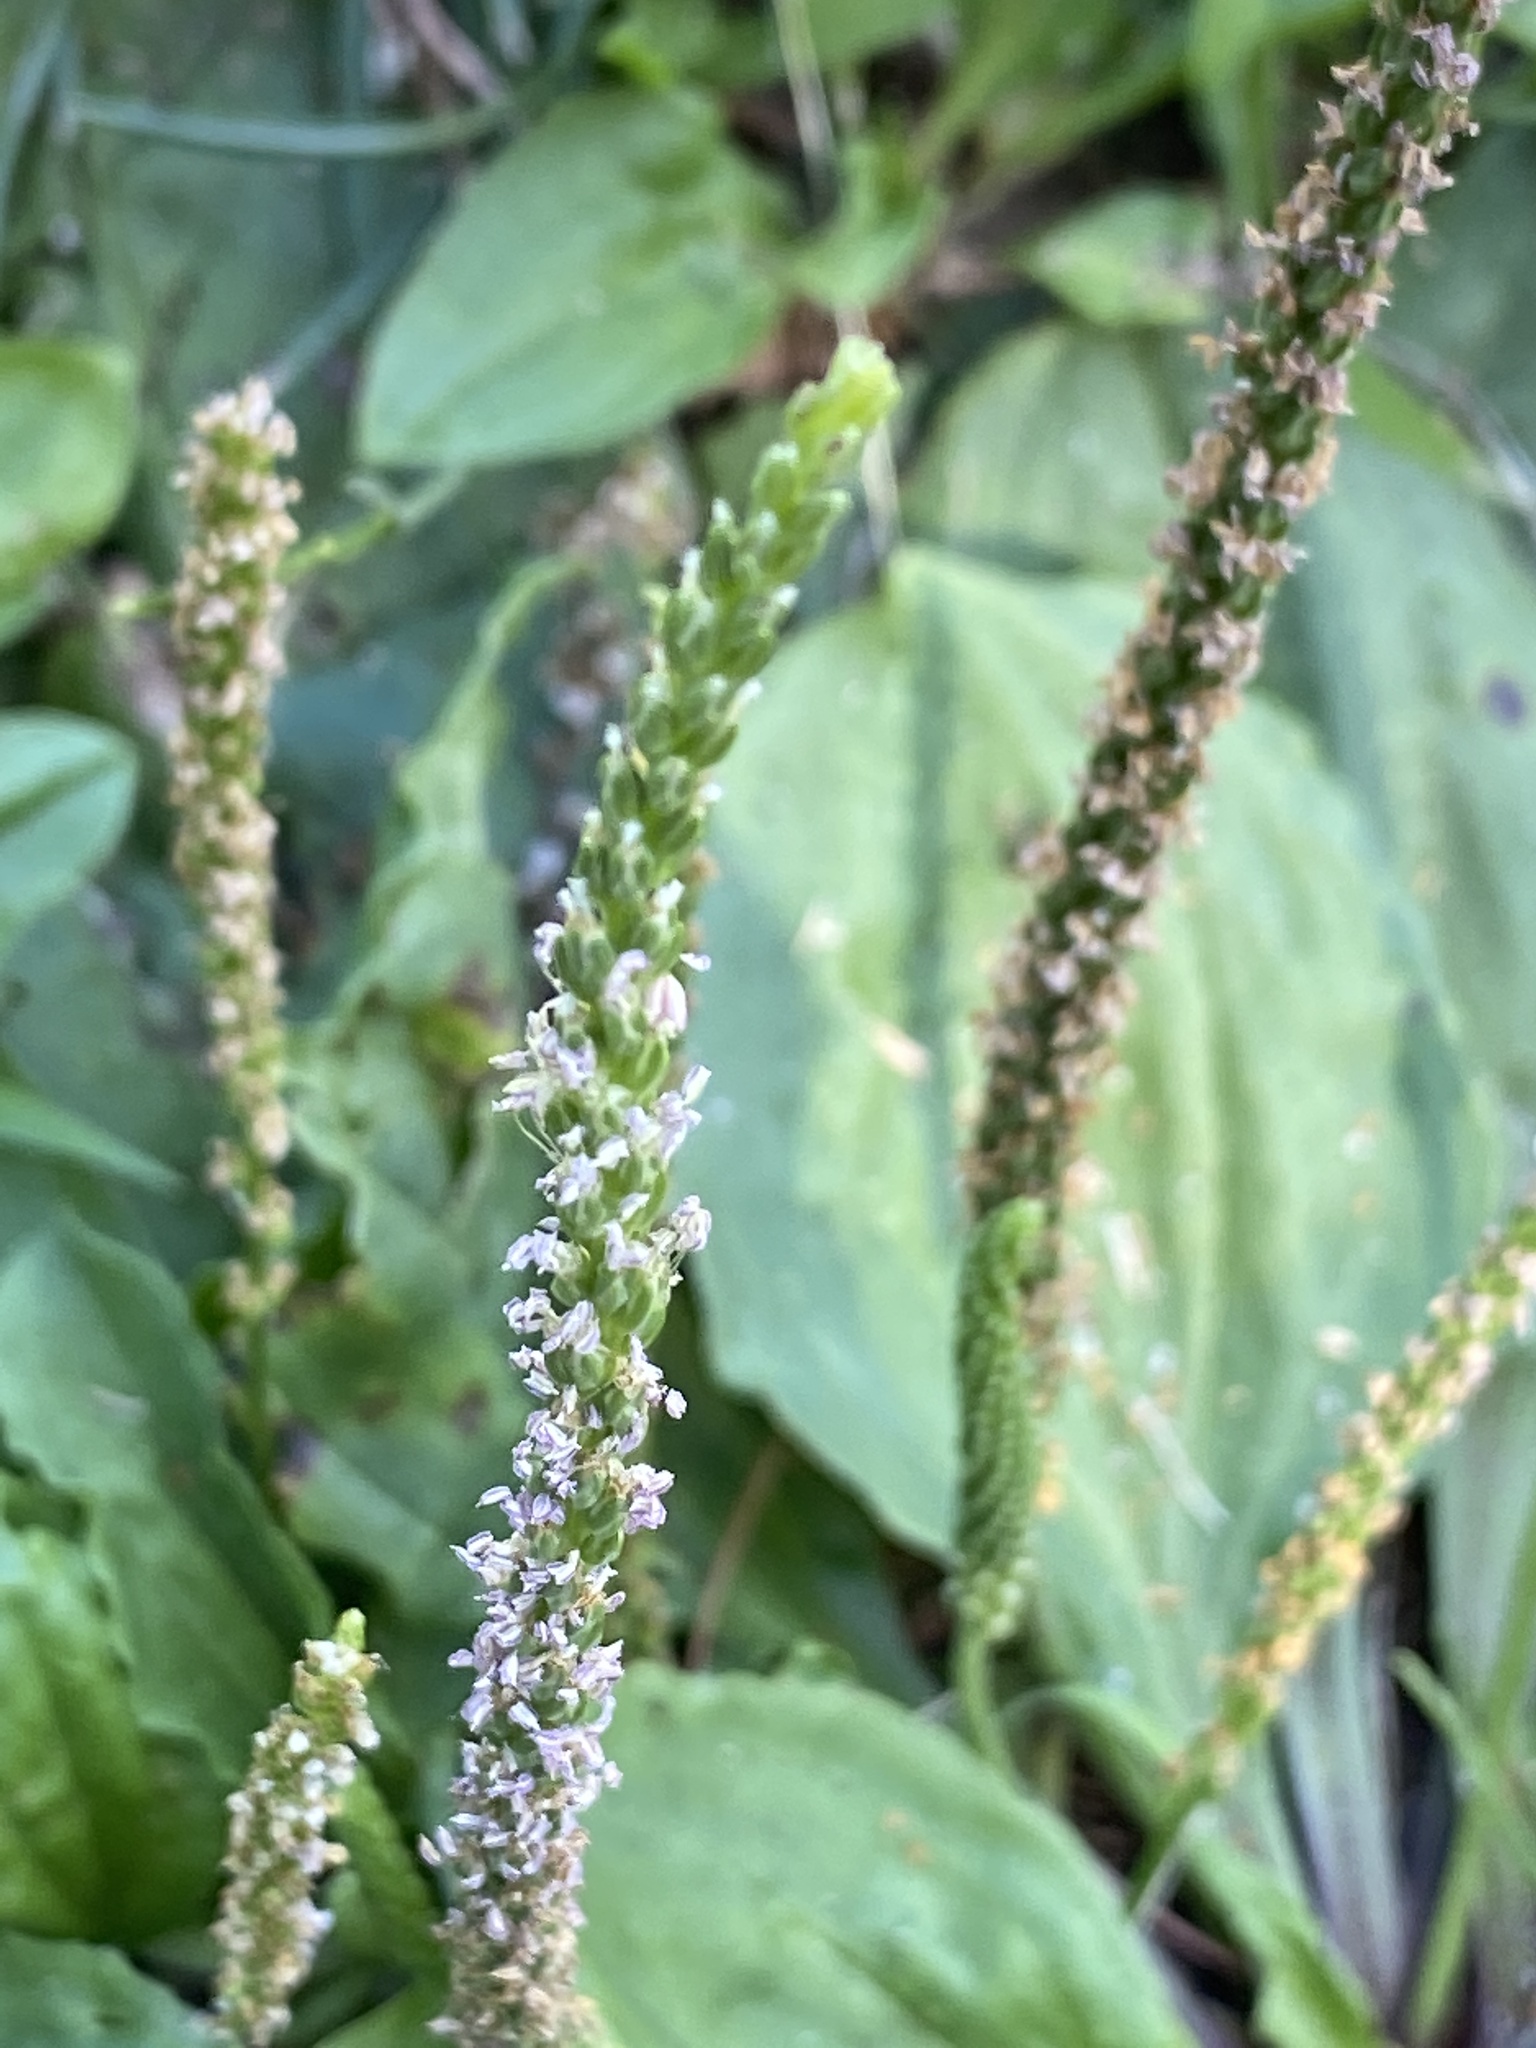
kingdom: Plantae
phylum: Tracheophyta
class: Magnoliopsida
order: Lamiales
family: Plantaginaceae
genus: Plantago
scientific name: Plantago rugelii
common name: American plantain
